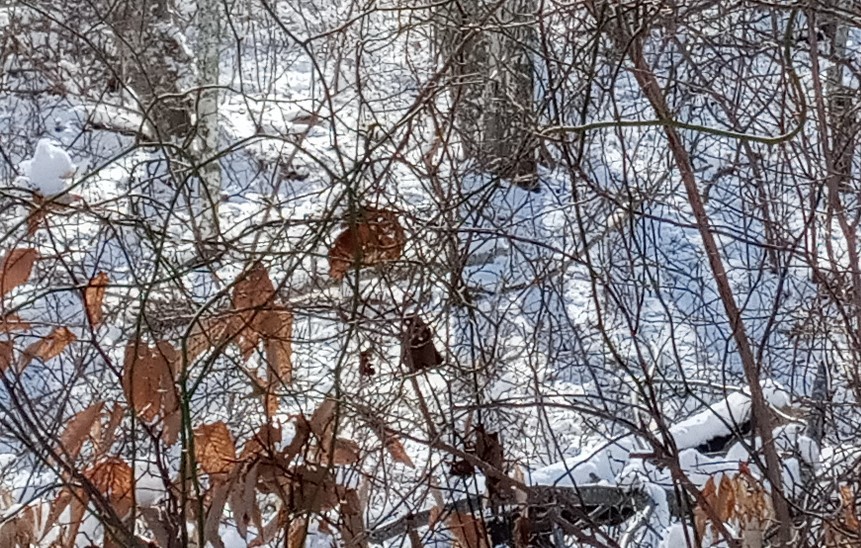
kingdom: Animalia
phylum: Chordata
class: Mammalia
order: Carnivora
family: Canidae
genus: Vulpes
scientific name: Vulpes vulpes
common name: Red fox
